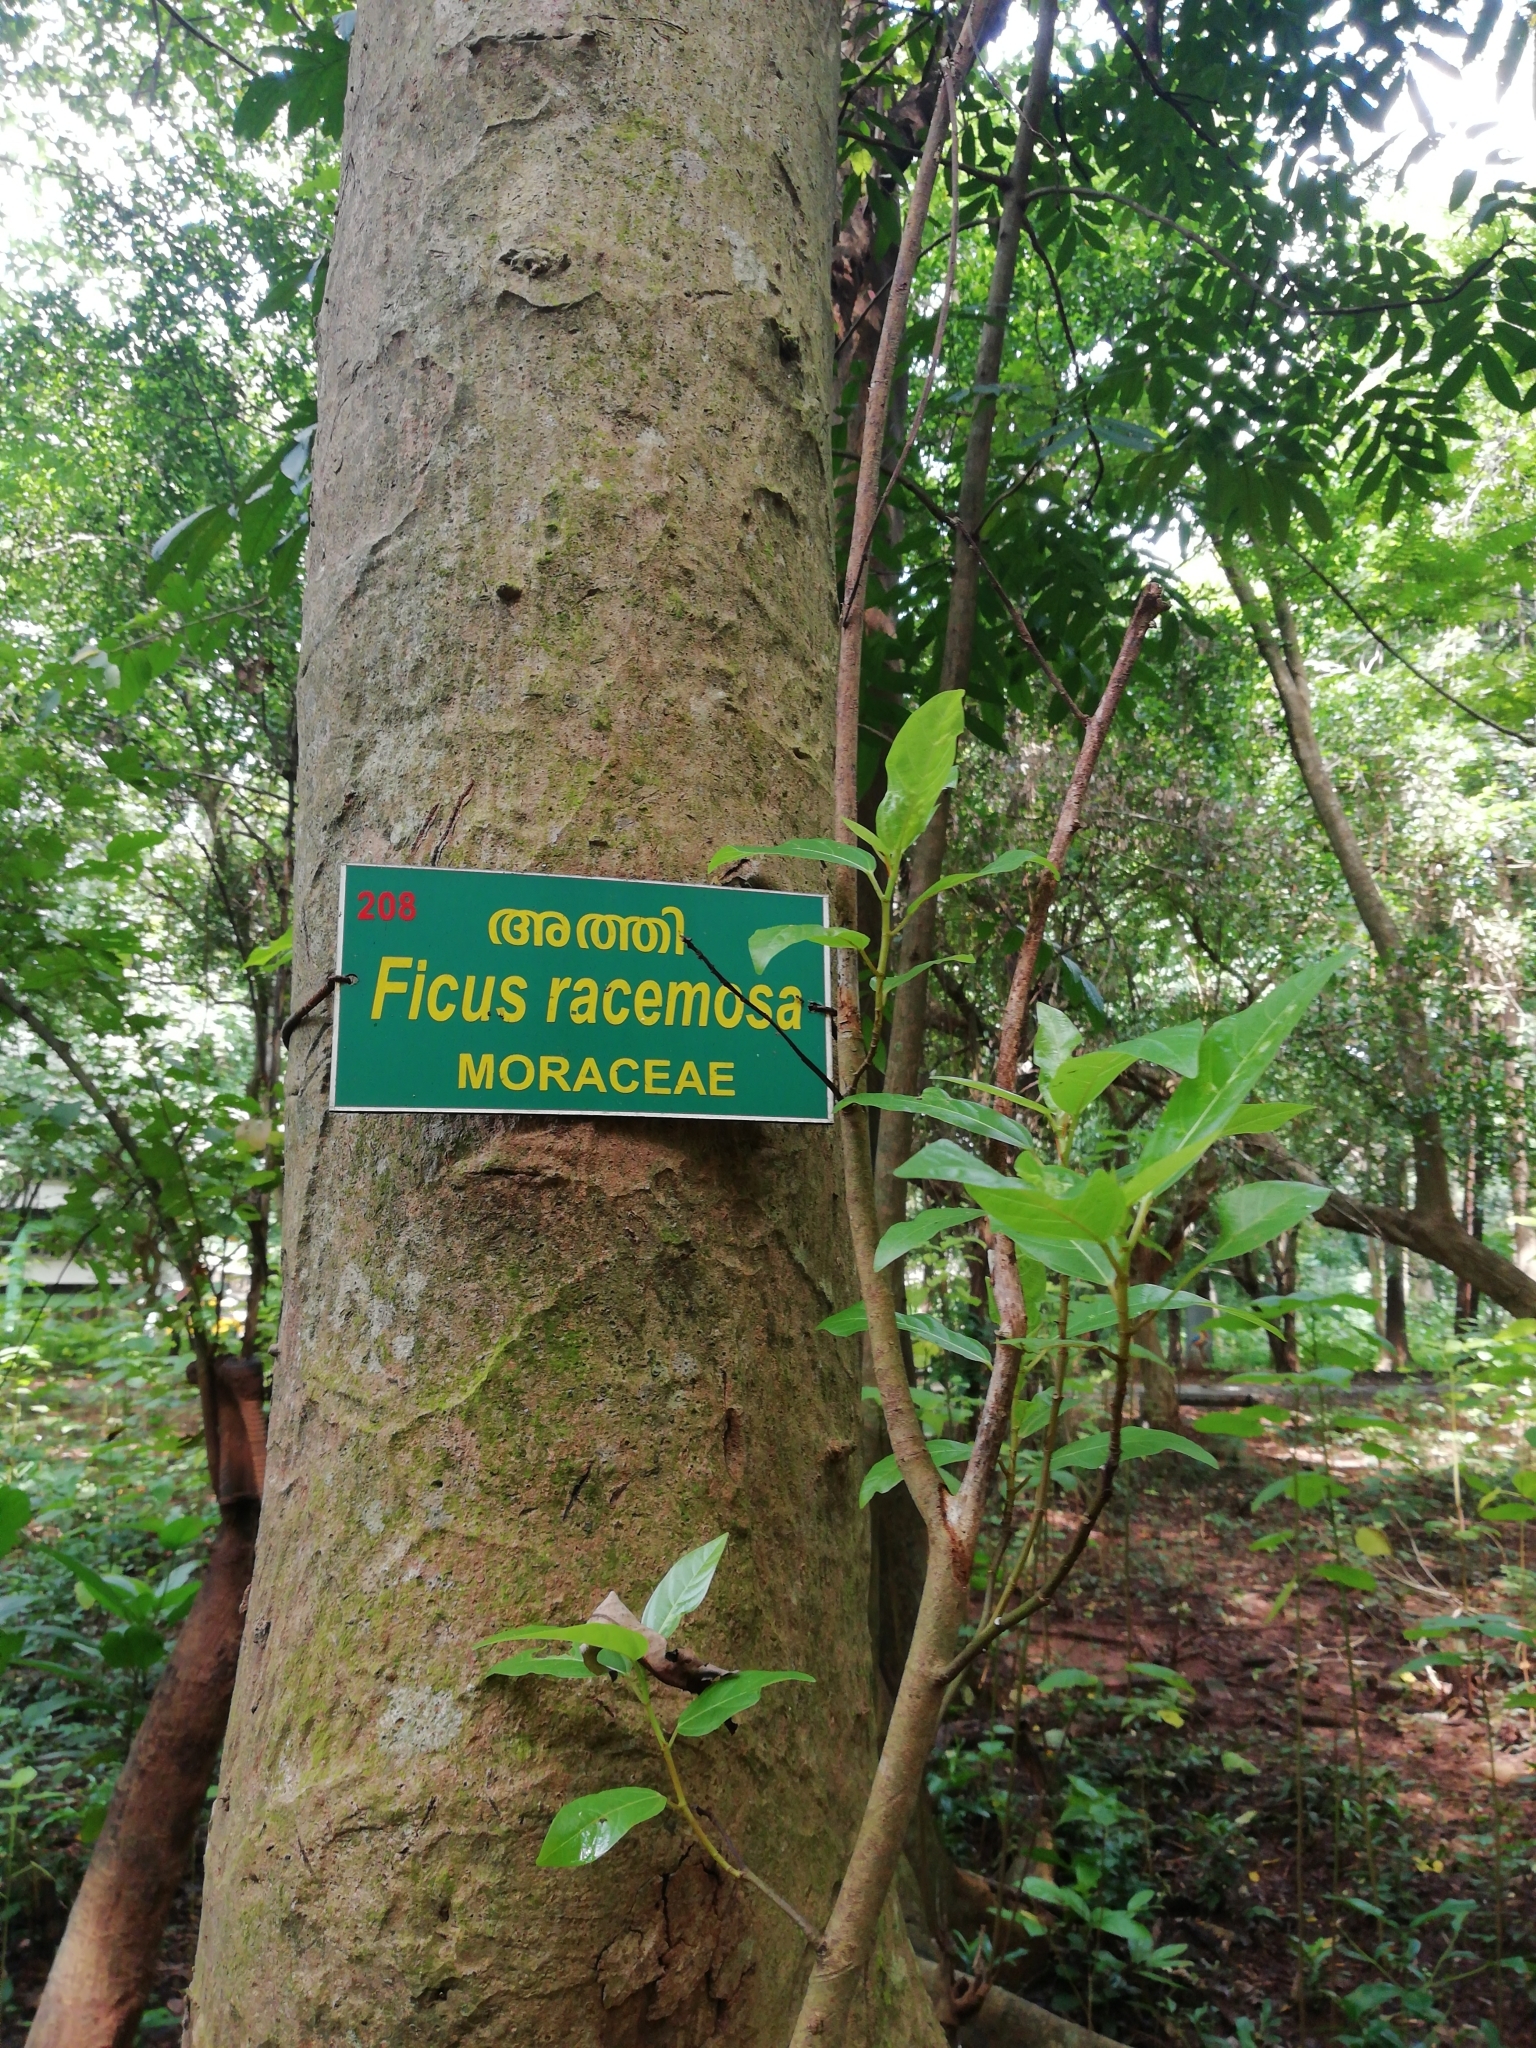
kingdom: Plantae
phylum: Tracheophyta
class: Magnoliopsida
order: Rosales
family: Moraceae
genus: Ficus
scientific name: Ficus racemosa
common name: Cluster fig
